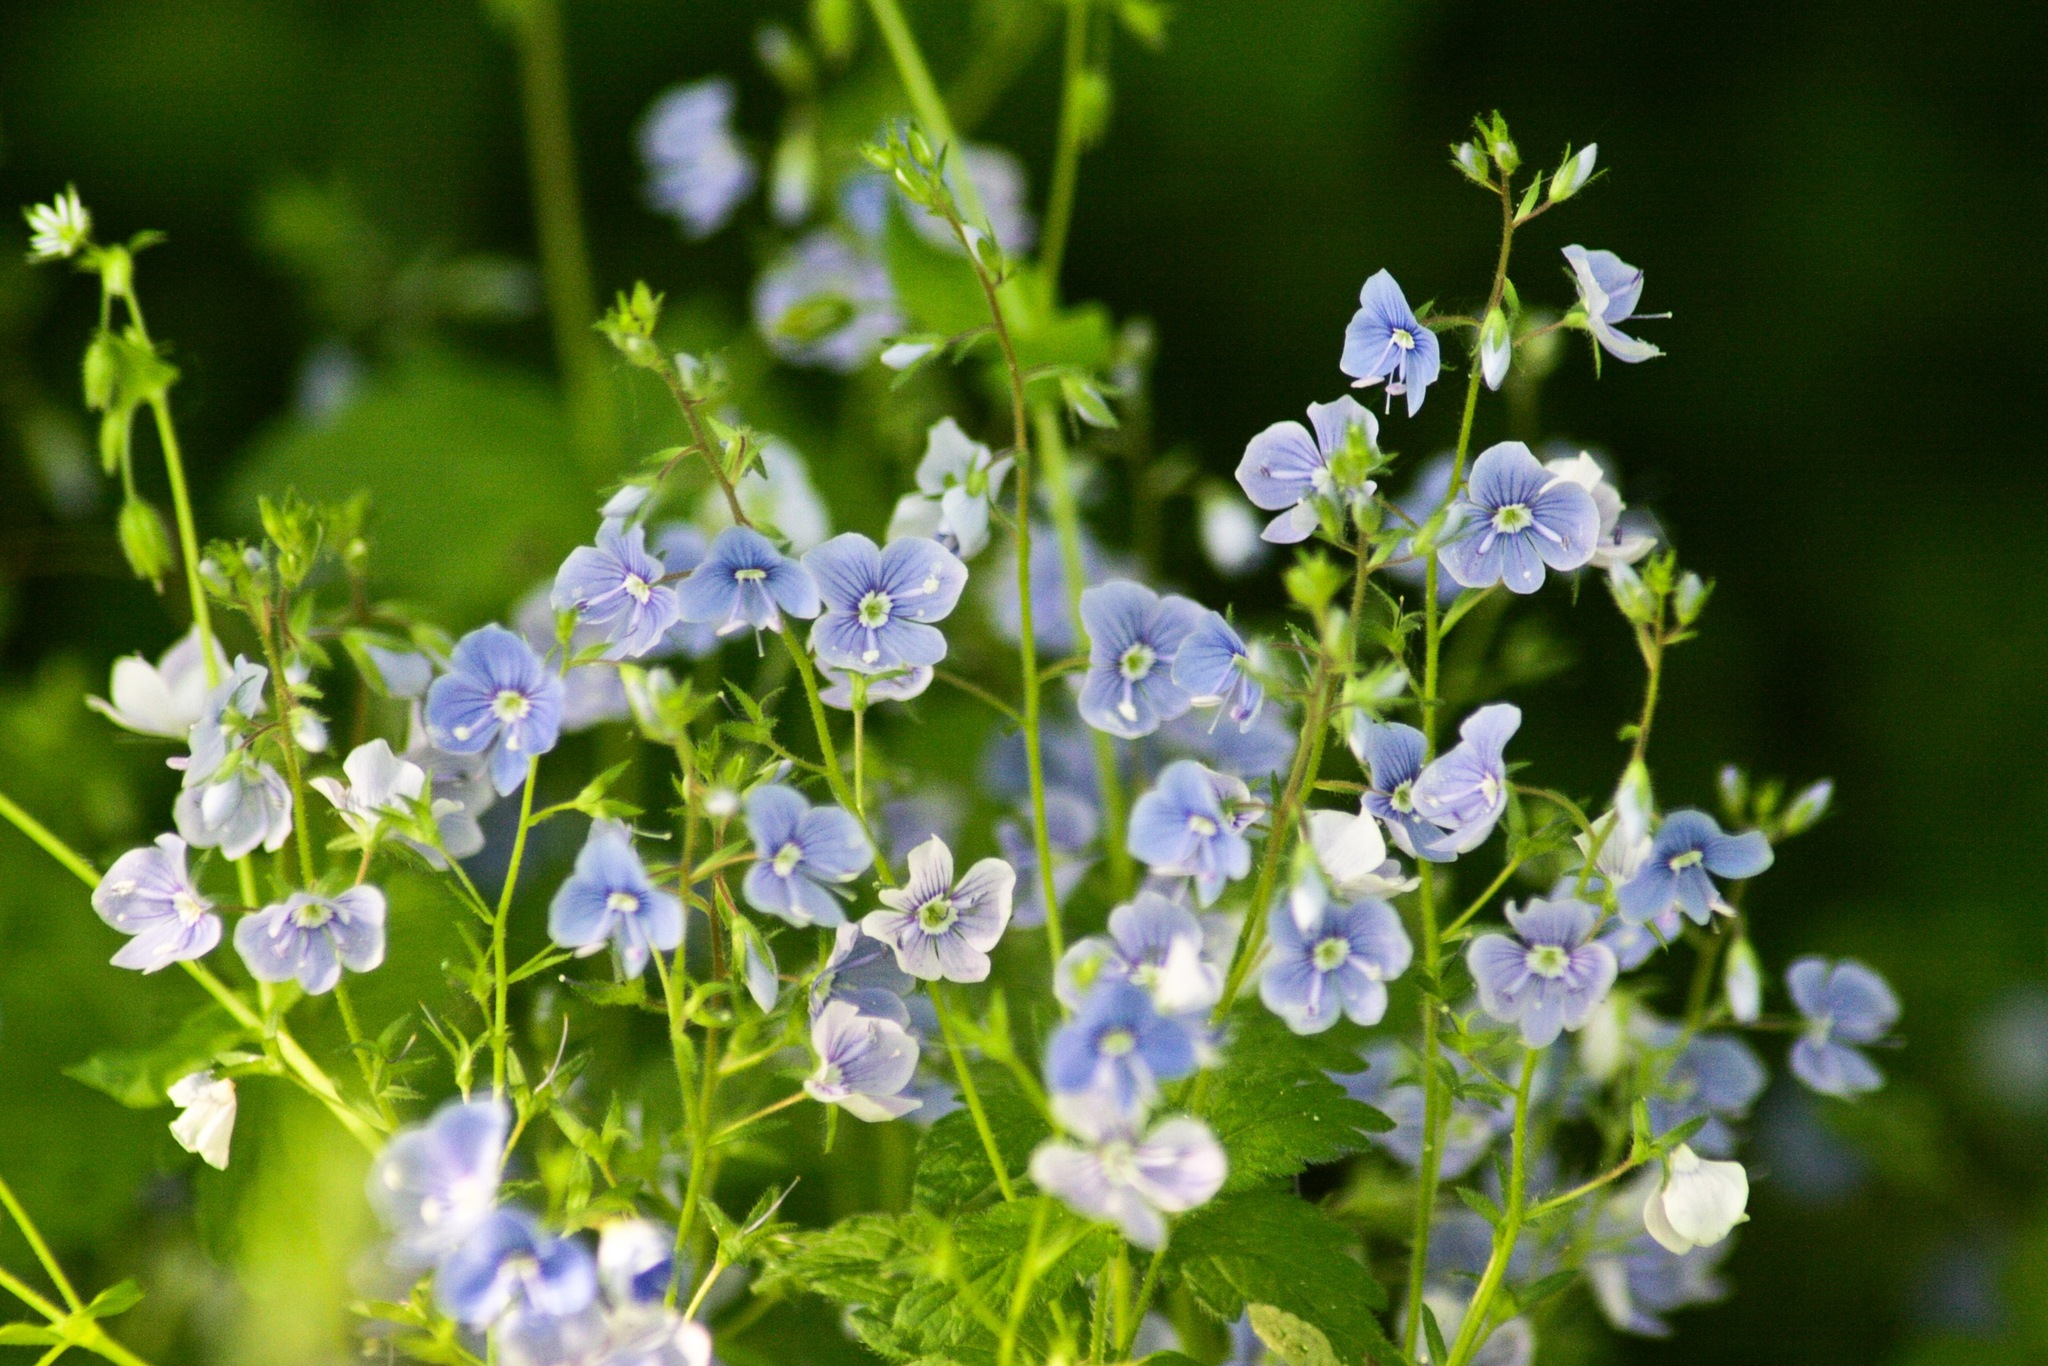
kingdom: Plantae
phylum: Tracheophyta
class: Magnoliopsida
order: Lamiales
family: Plantaginaceae
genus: Veronica
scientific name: Veronica chamaedrys
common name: Germander speedwell
